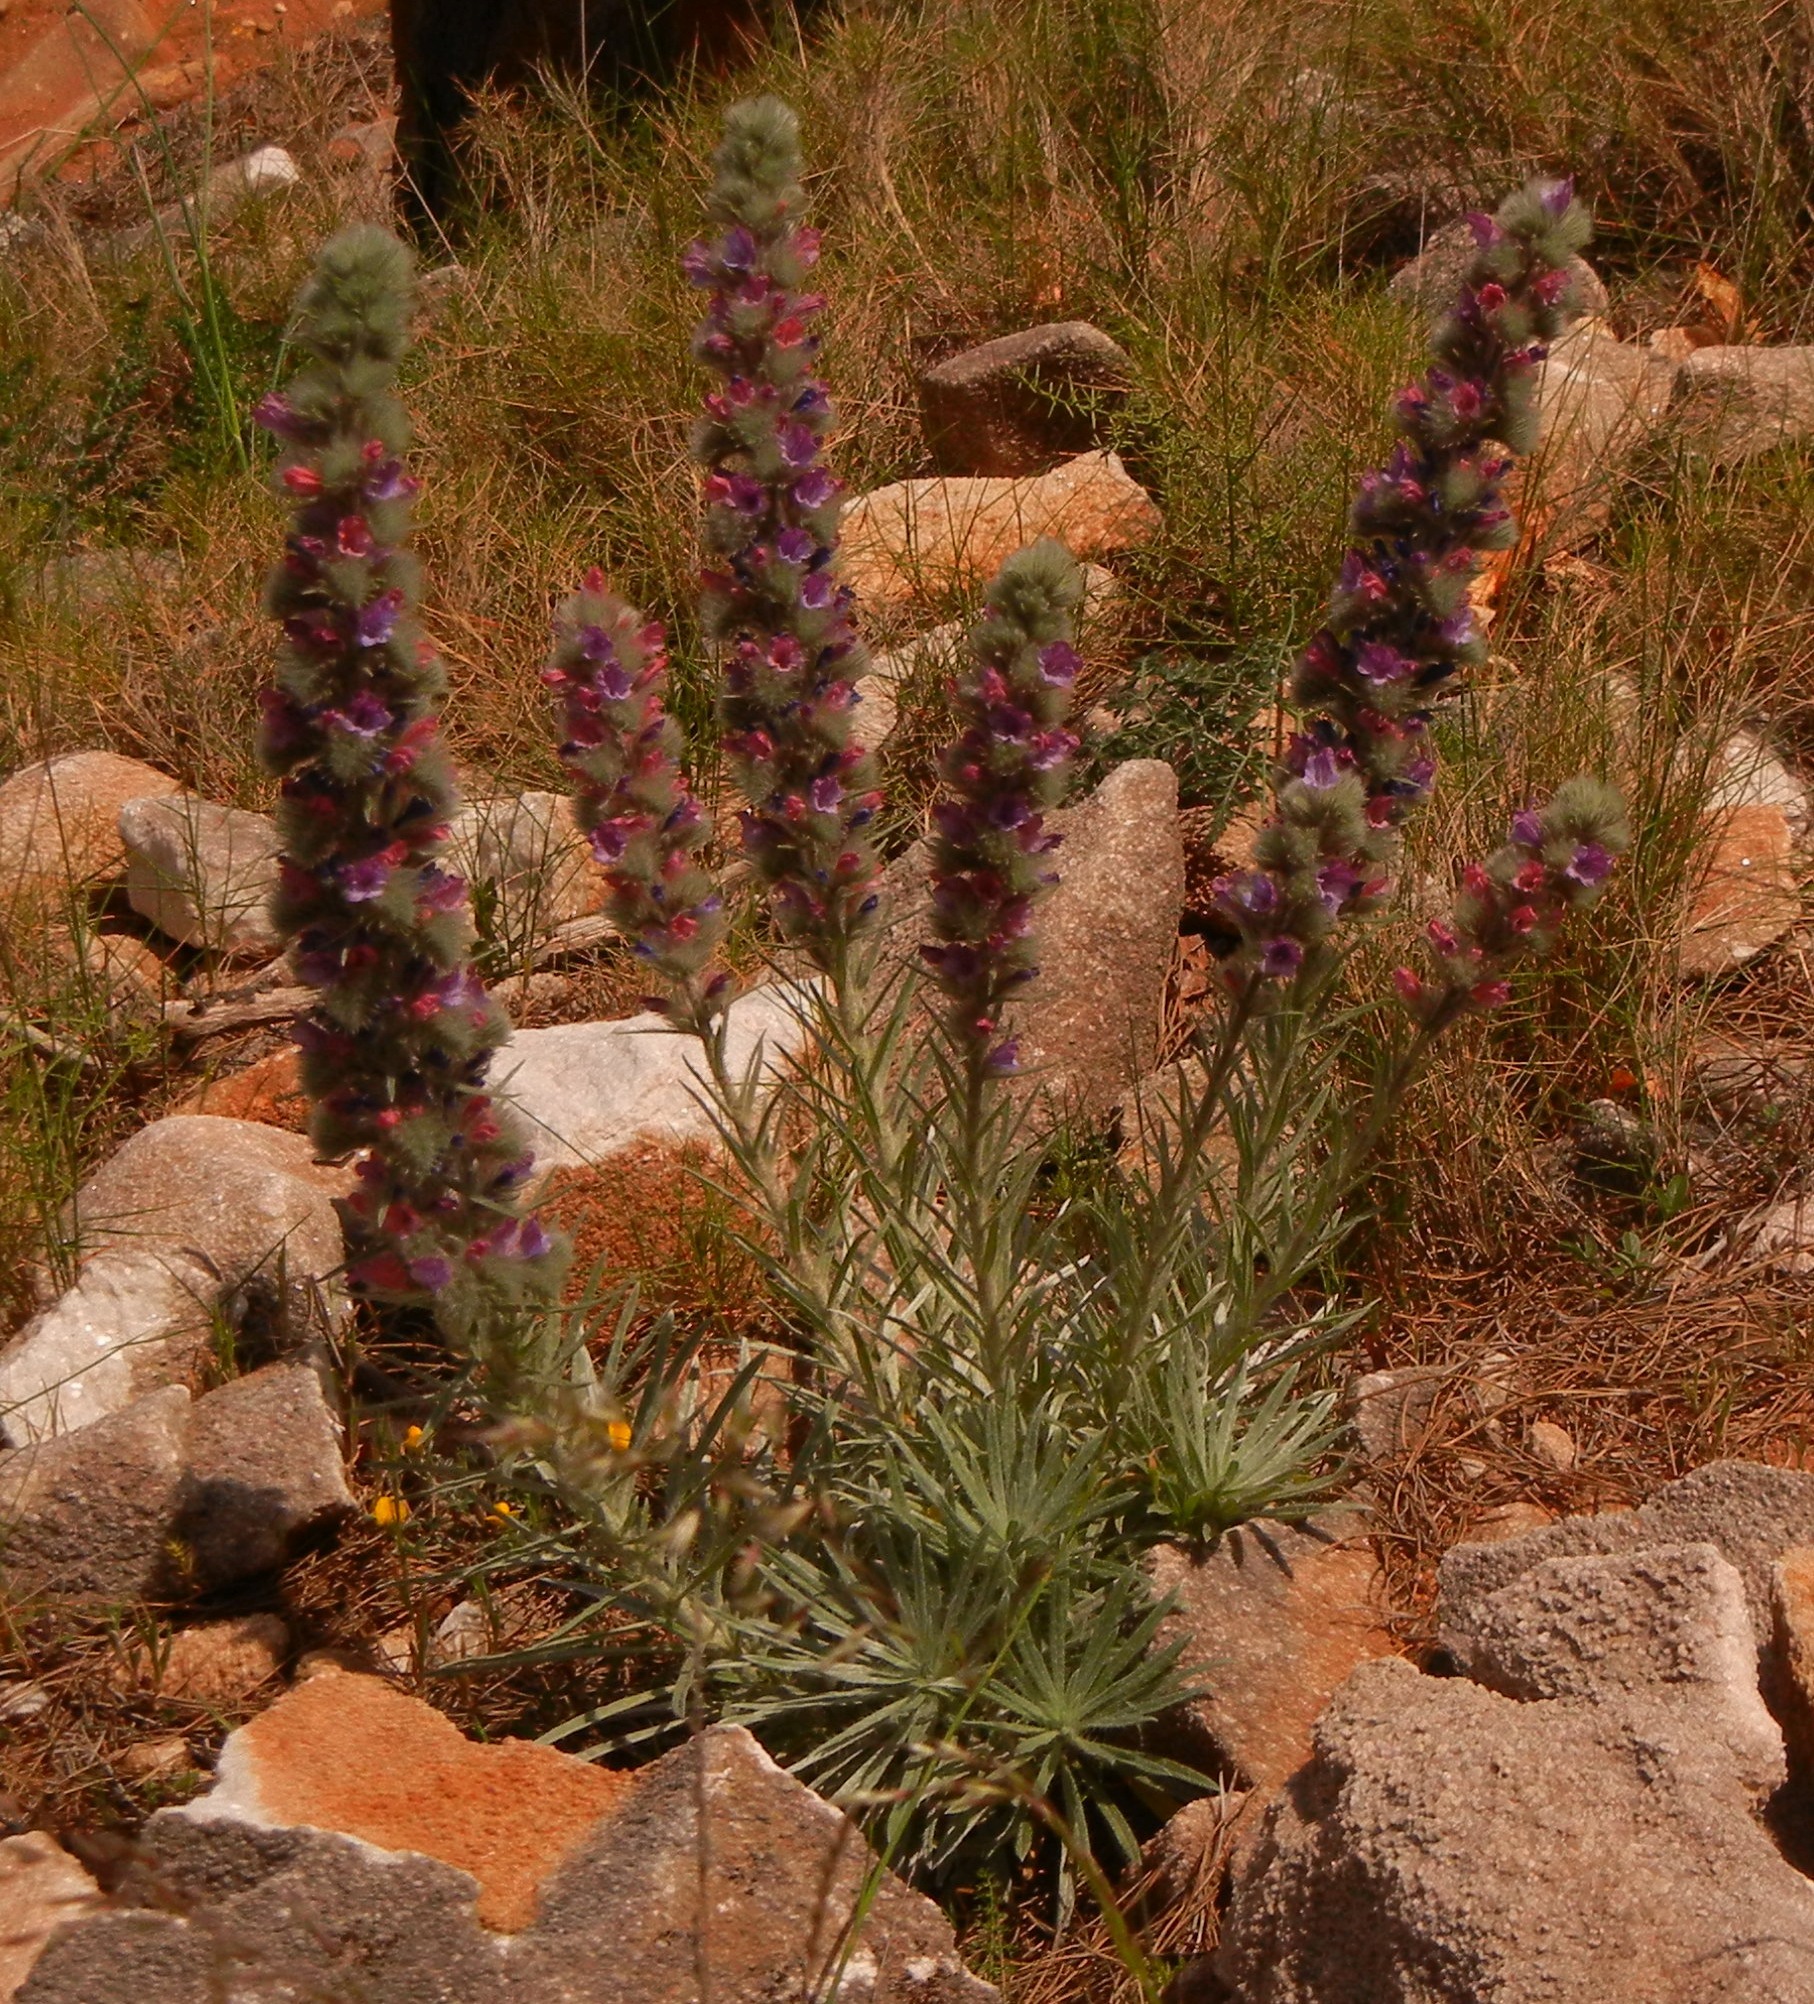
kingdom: Plantae
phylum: Tracheophyta
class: Magnoliopsida
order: Boraginales
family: Boraginaceae
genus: Echium
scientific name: Echium albicans
